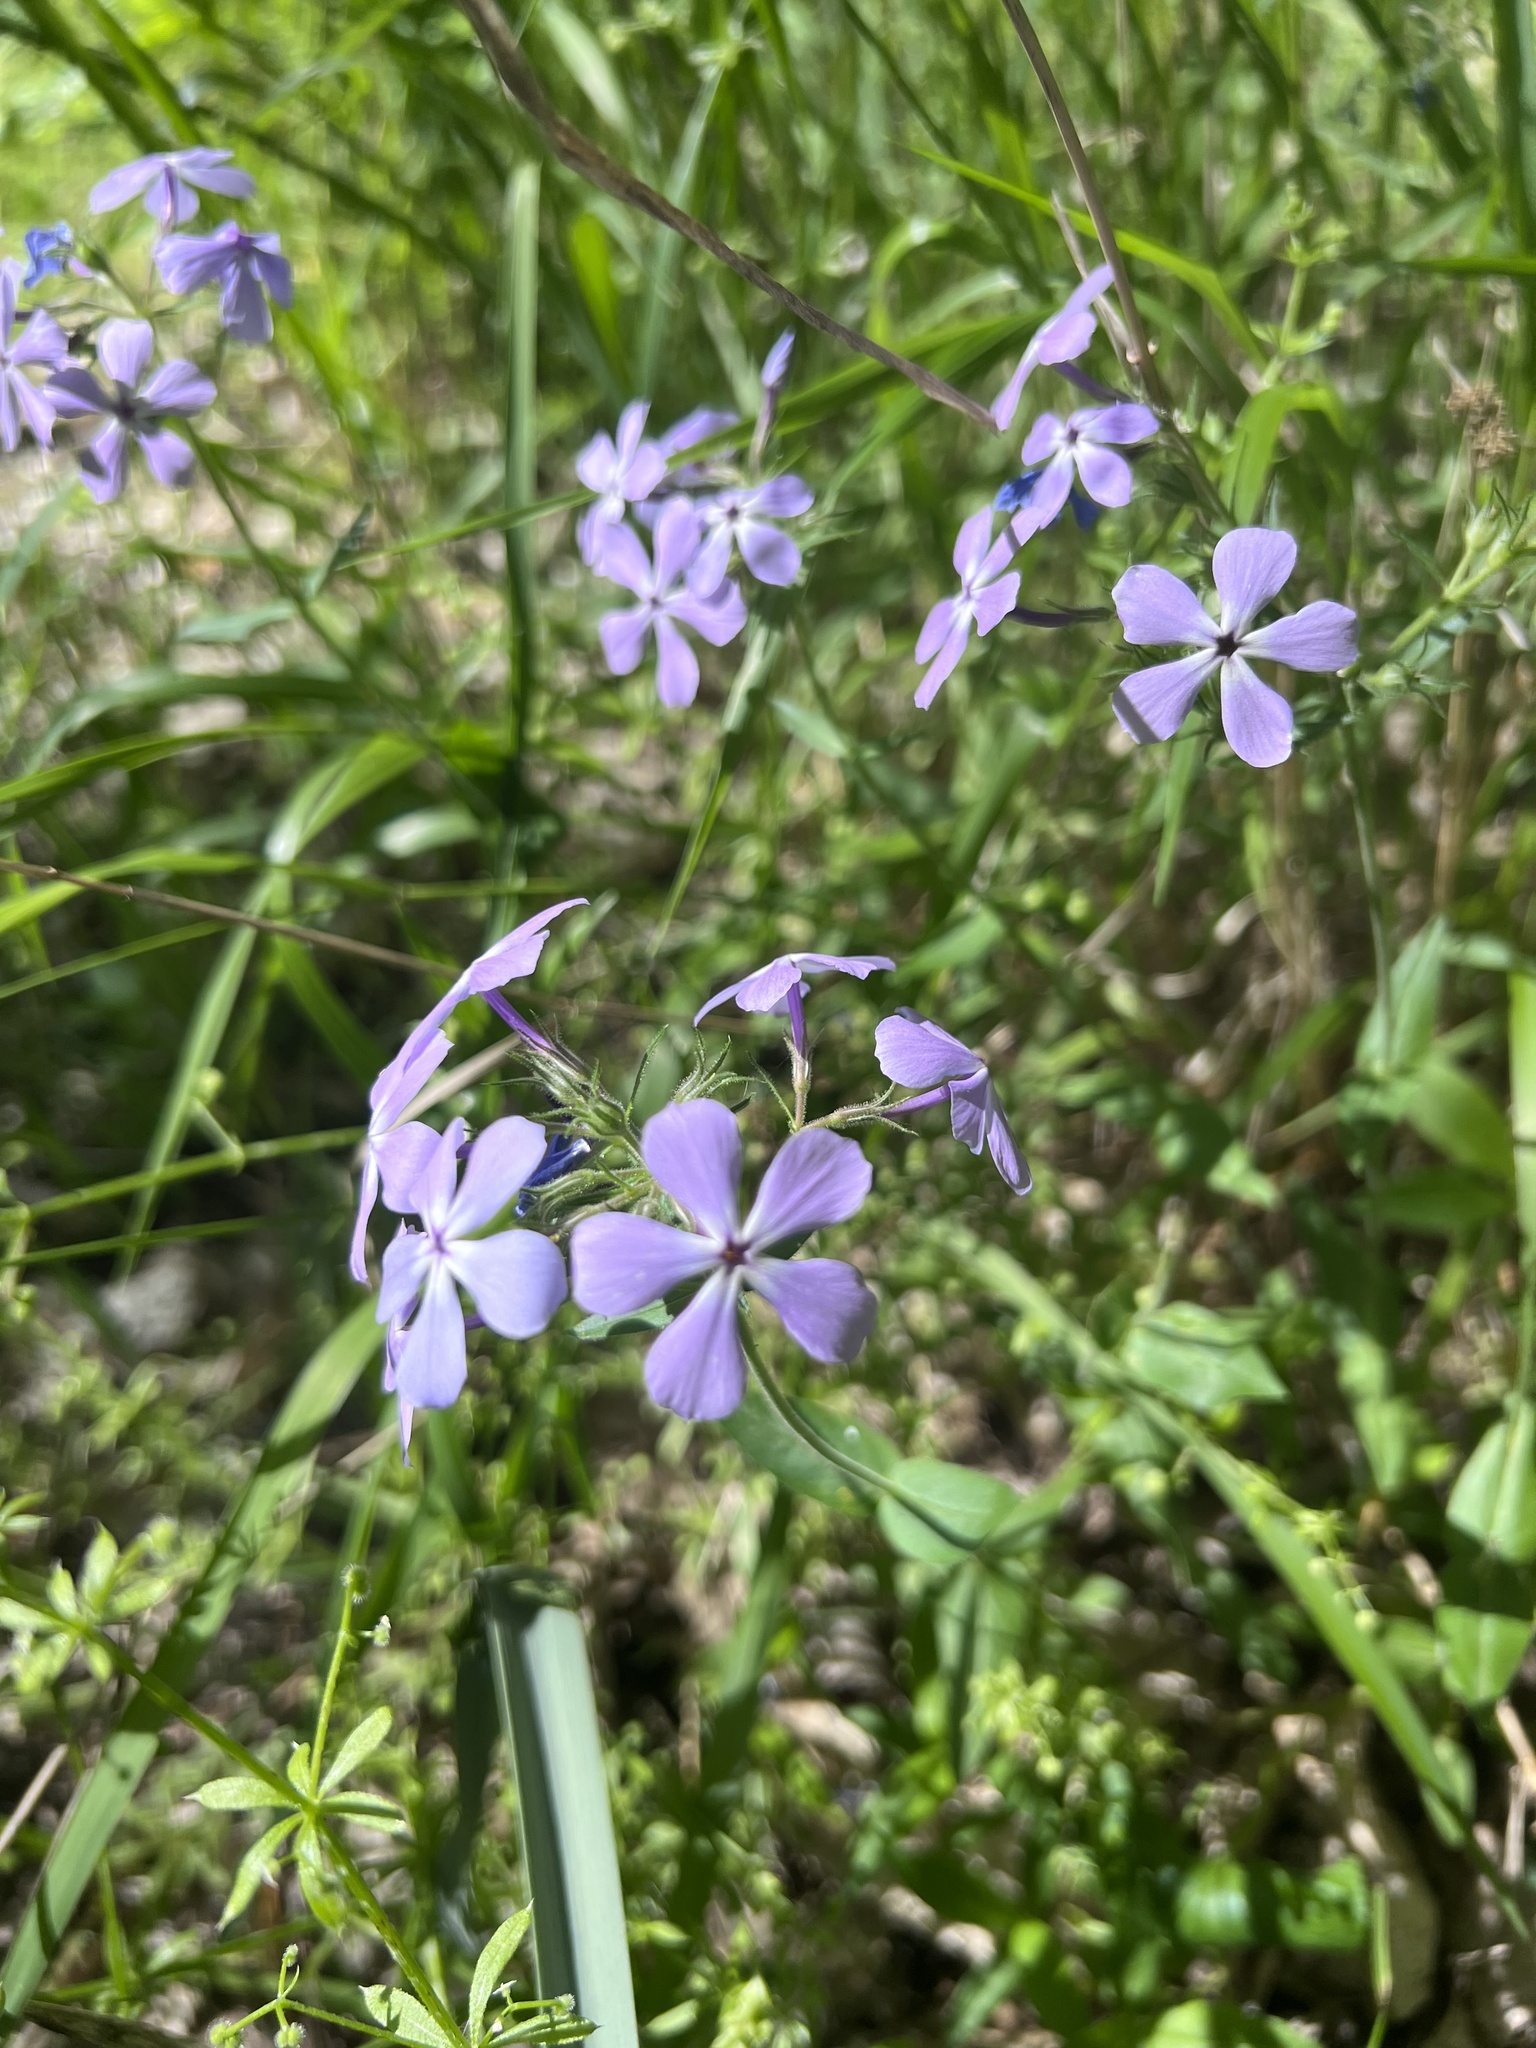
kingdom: Plantae
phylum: Tracheophyta
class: Magnoliopsida
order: Ericales
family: Polemoniaceae
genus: Phlox
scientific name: Phlox divaricata
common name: Blue phlox
